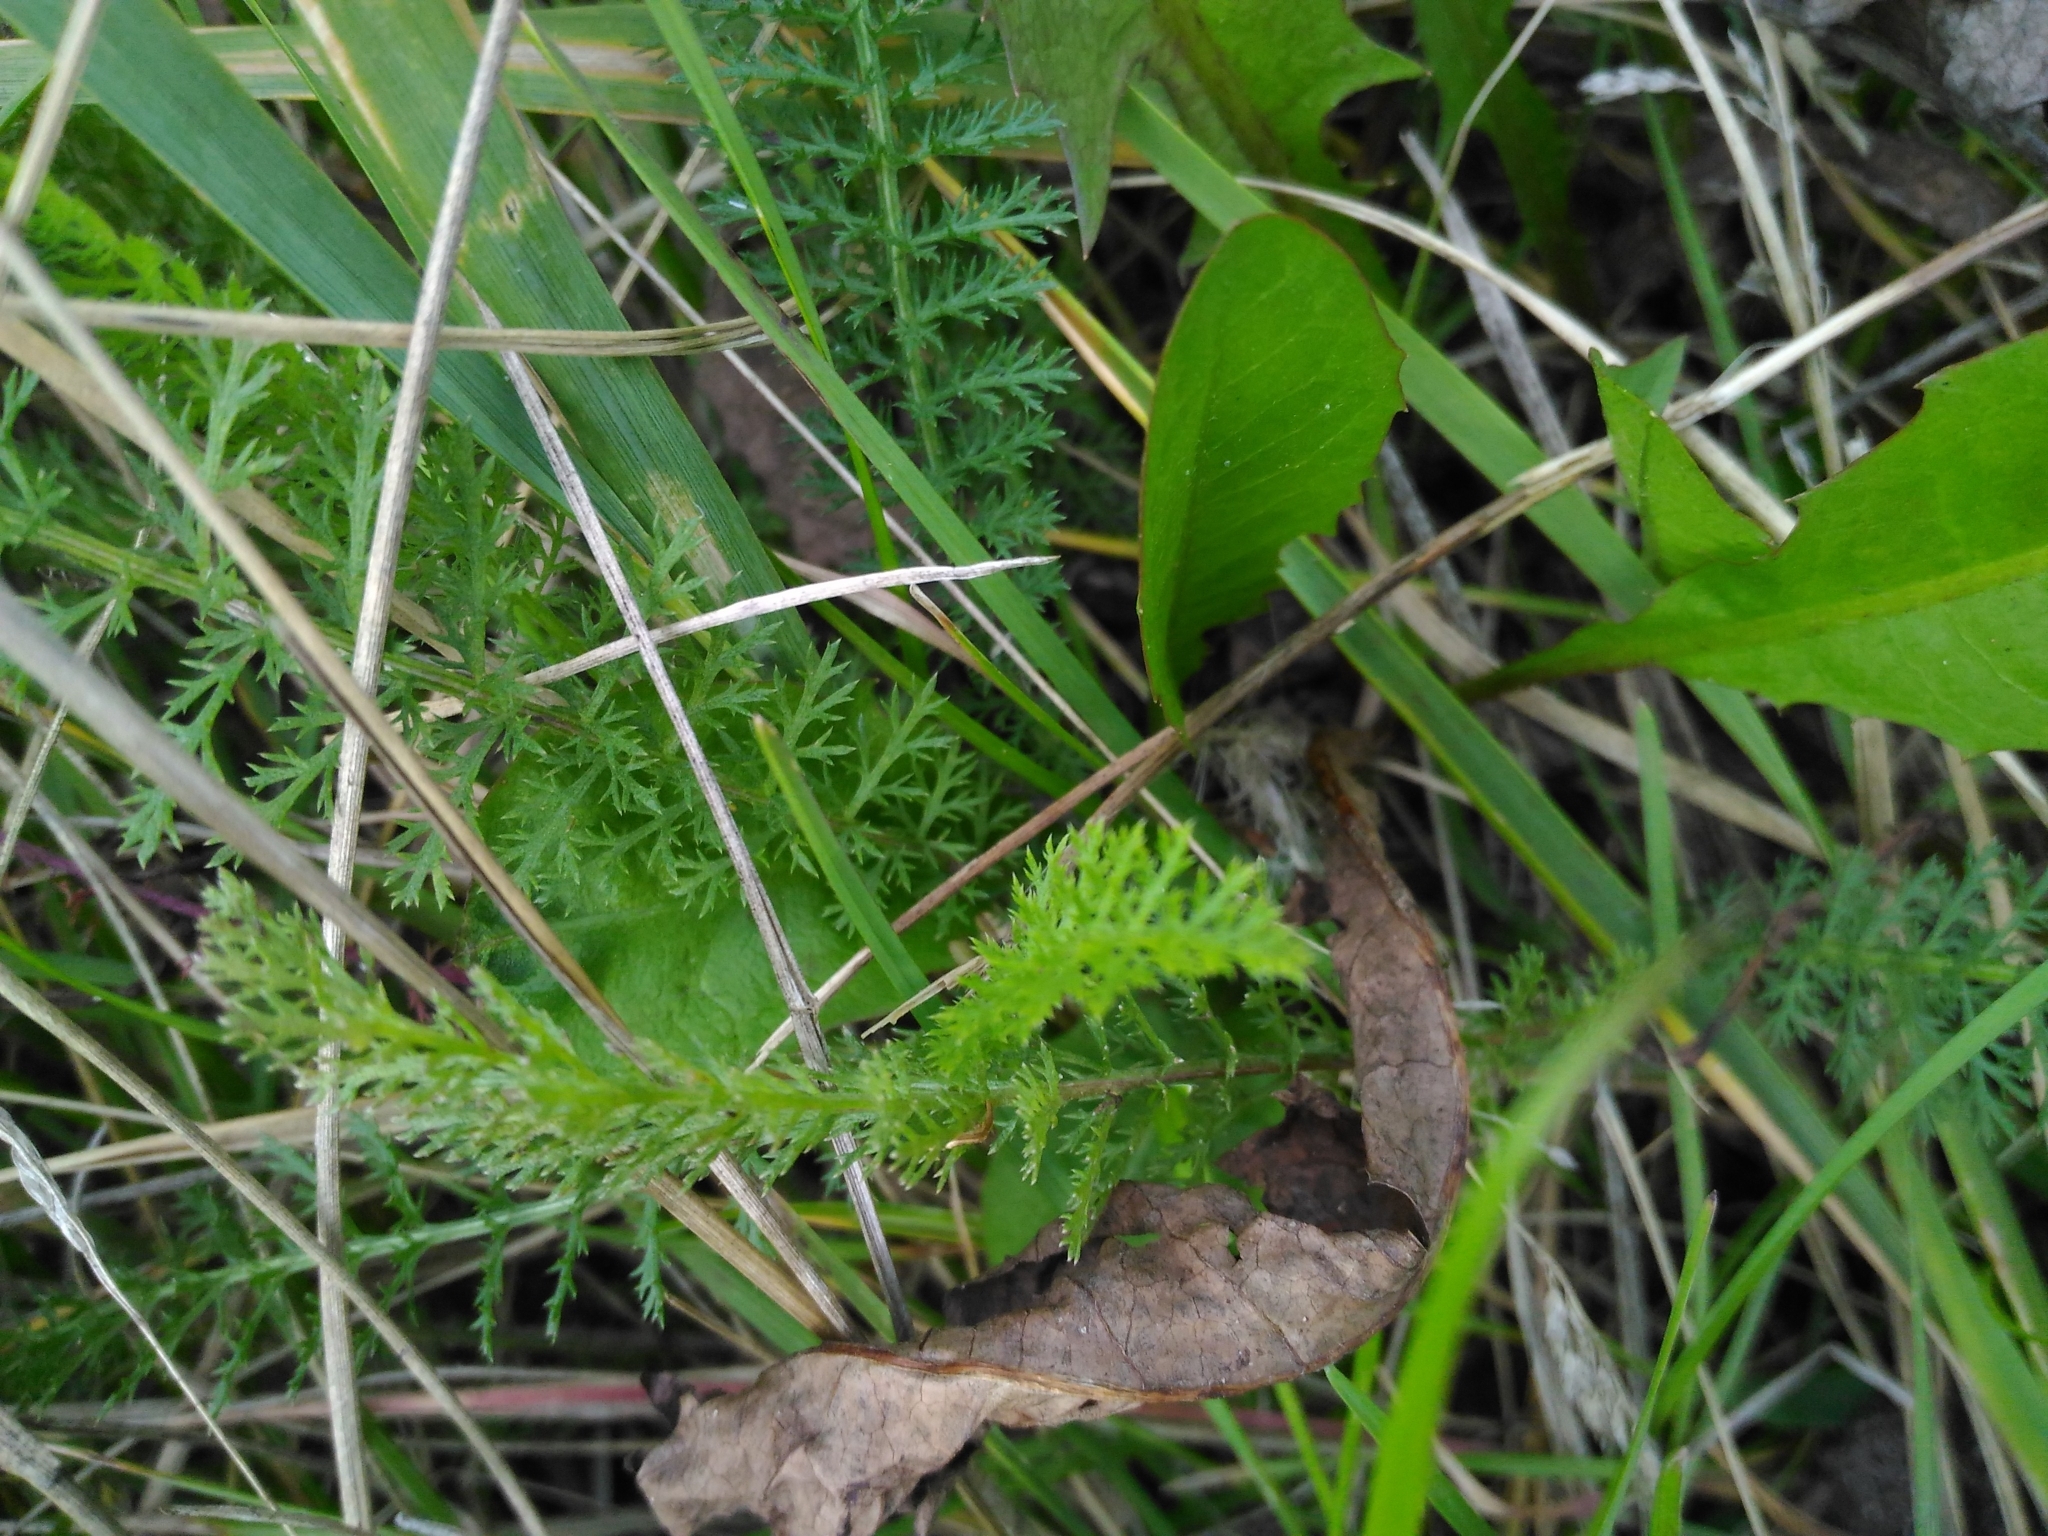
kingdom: Plantae
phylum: Tracheophyta
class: Magnoliopsida
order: Asterales
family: Asteraceae
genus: Achillea
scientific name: Achillea millefolium
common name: Yarrow
